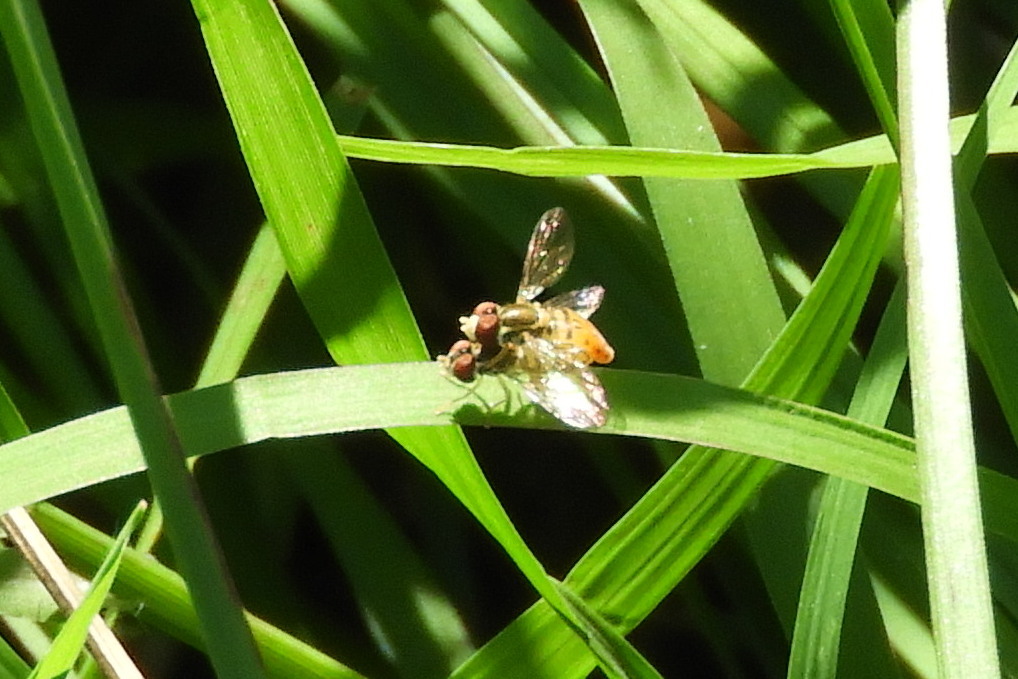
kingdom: Animalia
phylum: Arthropoda
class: Insecta
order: Diptera
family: Syrphidae
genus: Toxomerus
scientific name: Toxomerus marginatus
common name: Syrphid fly
